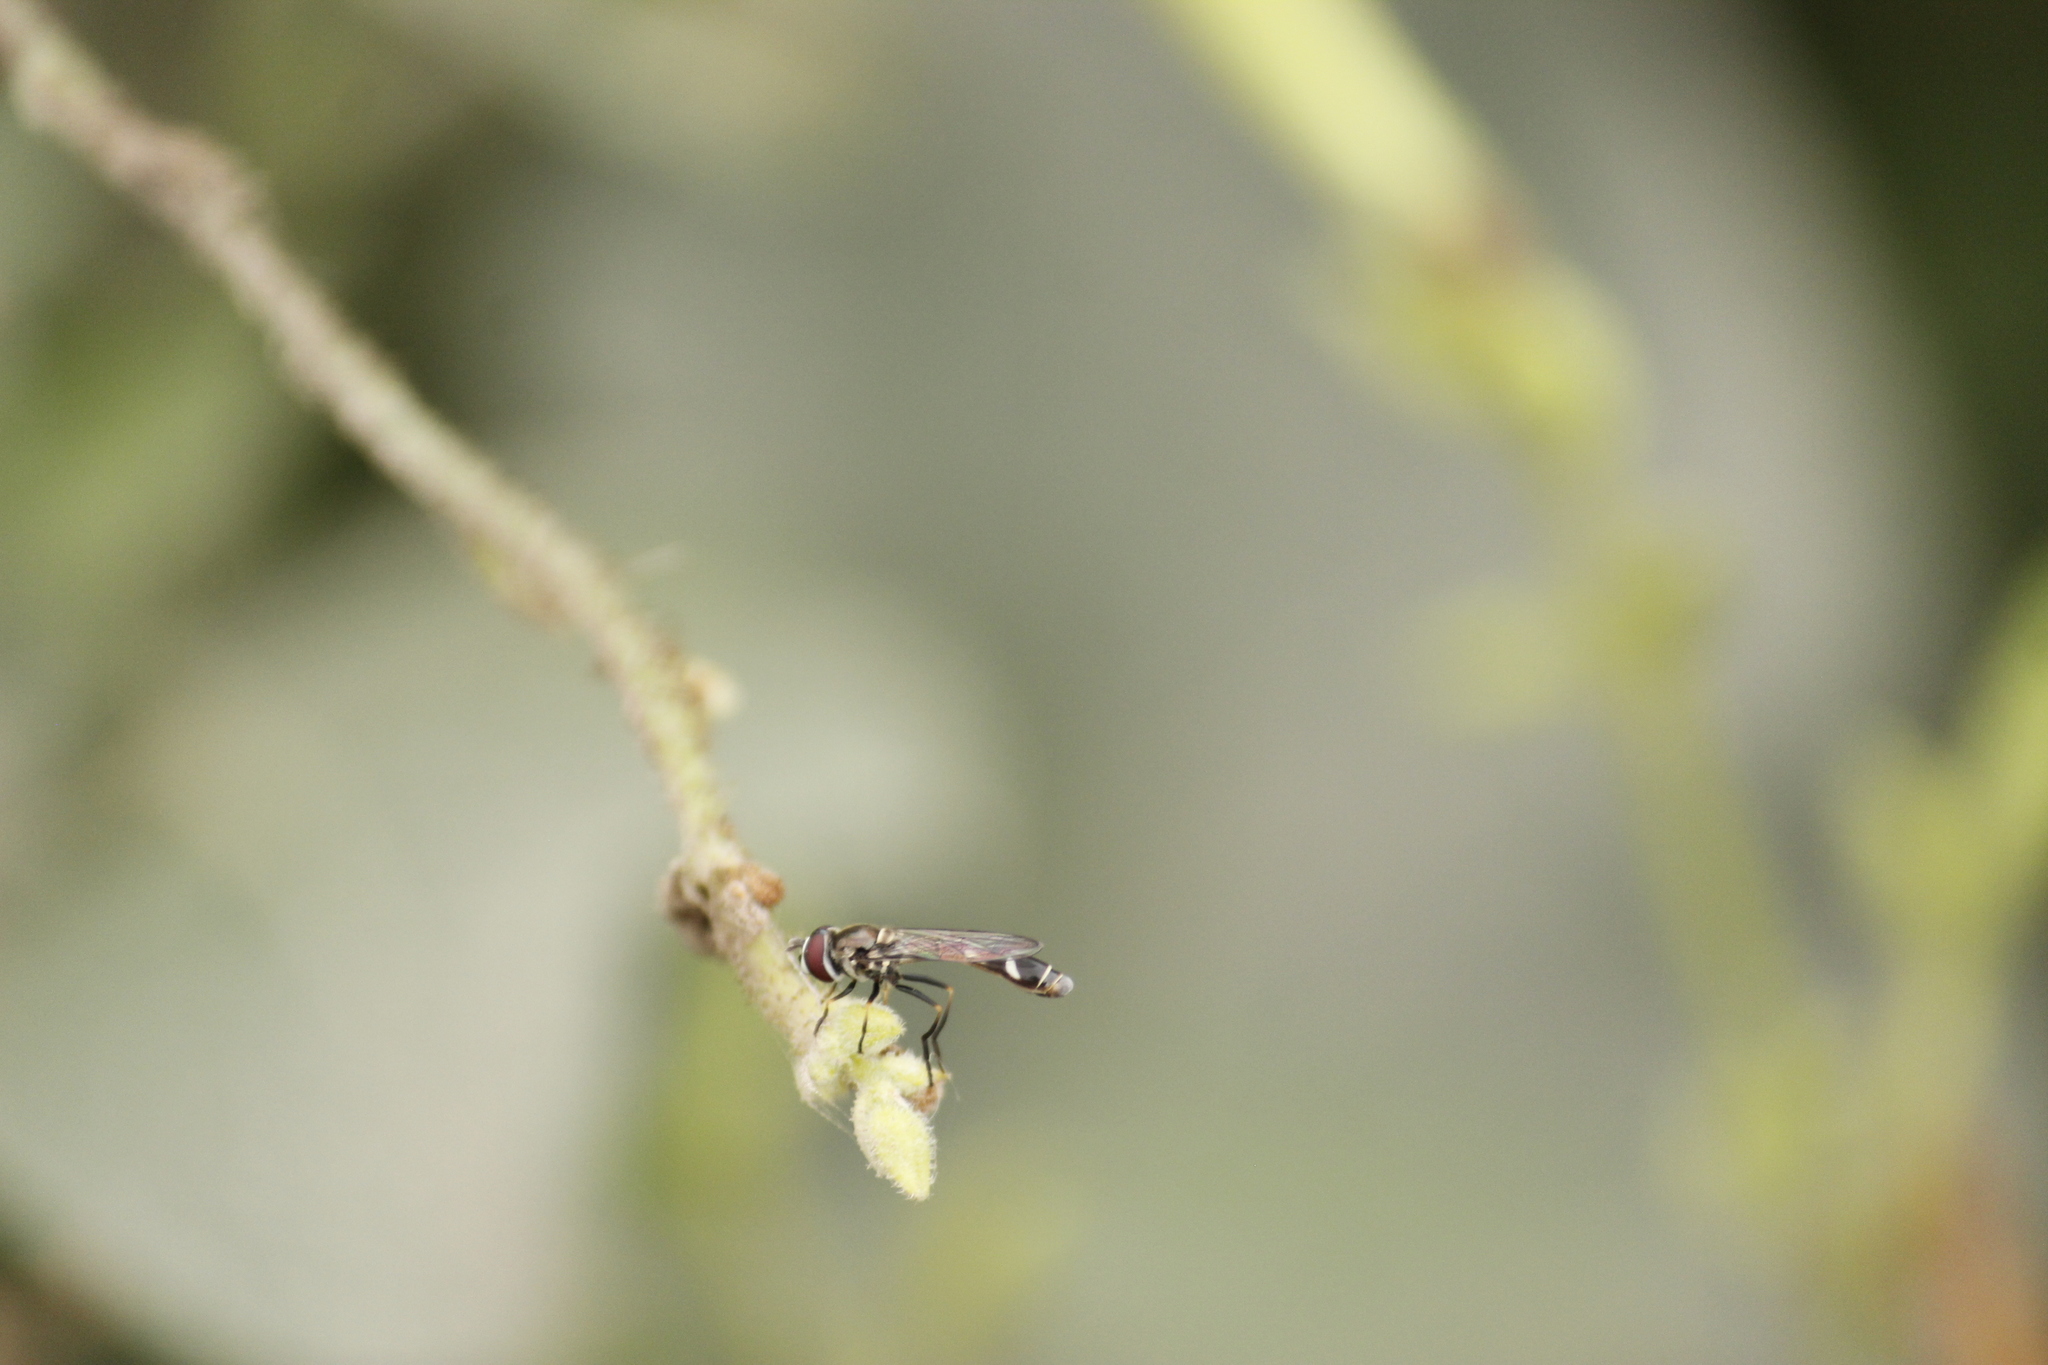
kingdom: Animalia
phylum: Arthropoda
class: Insecta
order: Diptera
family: Syrphidae
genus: Dioprosopa
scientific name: Dioprosopa clavatus
